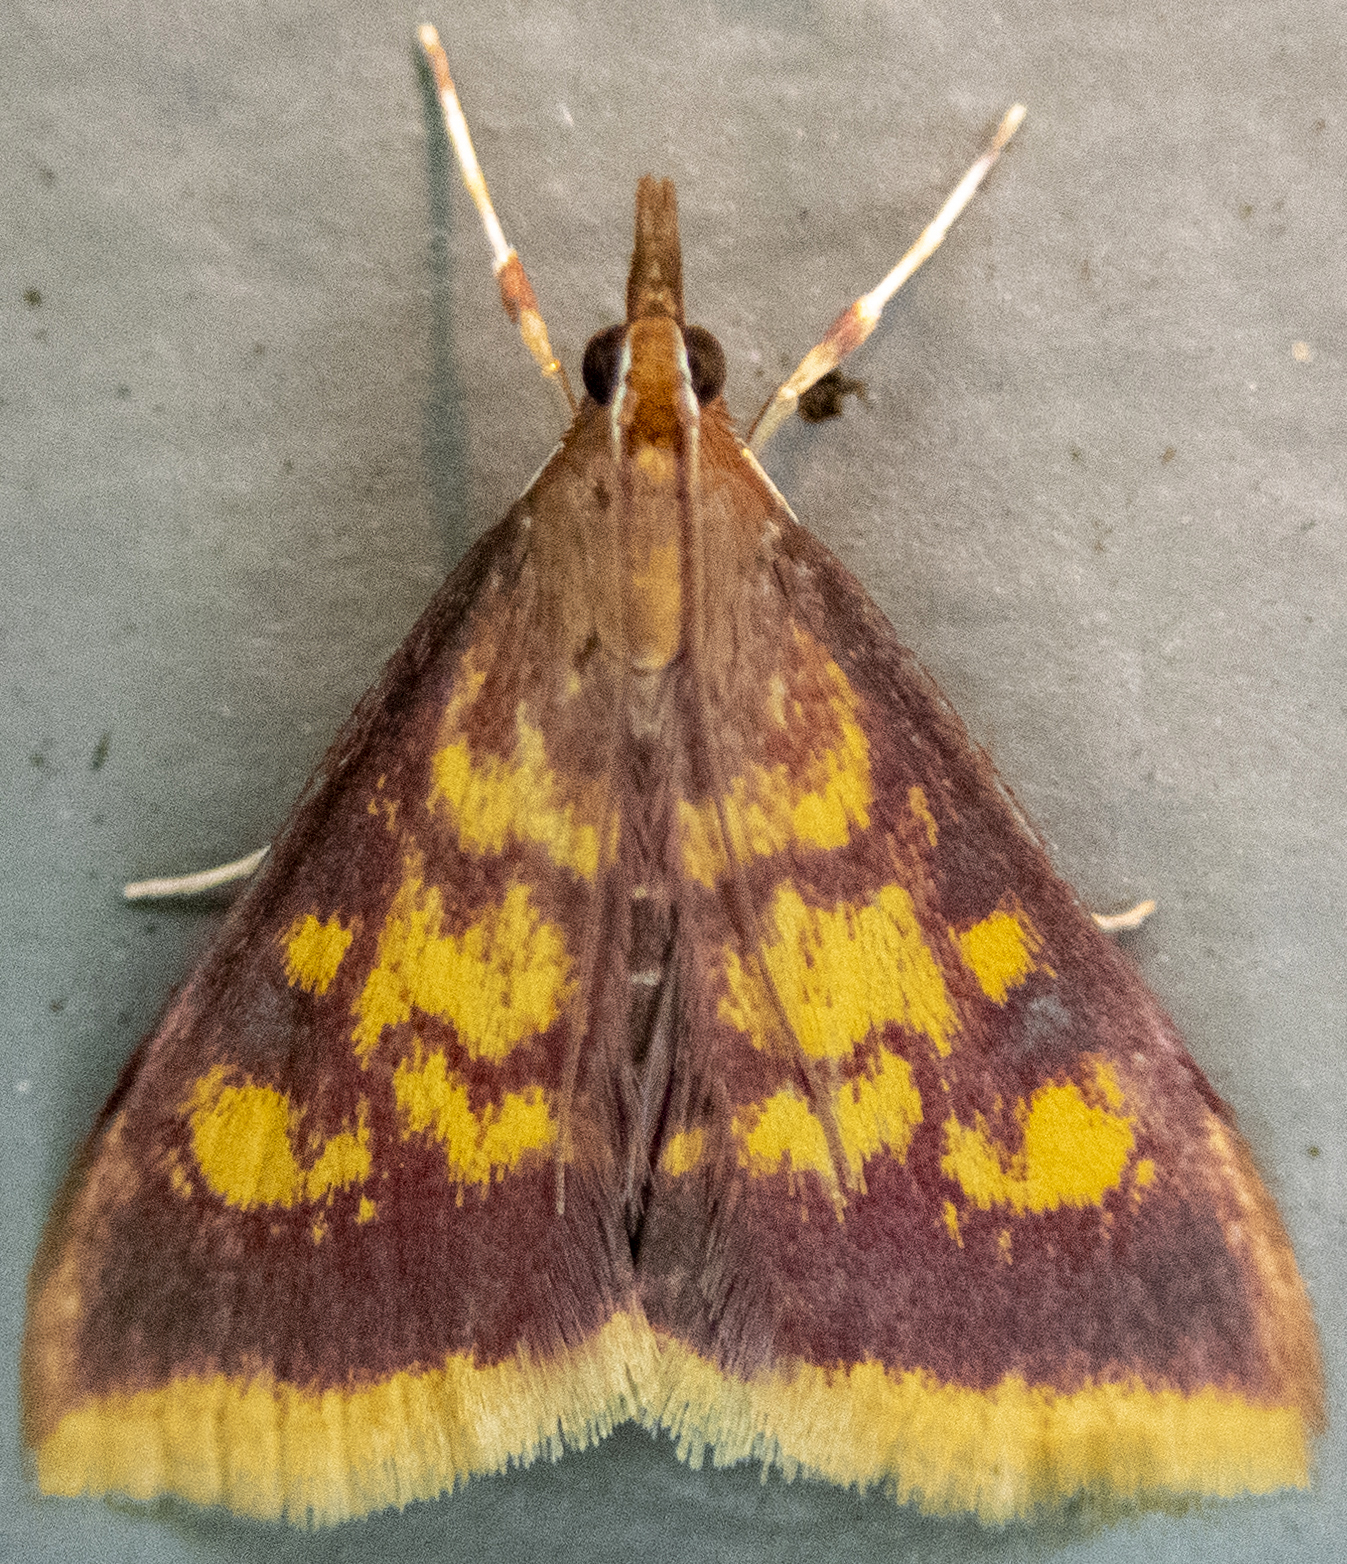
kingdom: Animalia
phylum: Arthropoda
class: Insecta
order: Lepidoptera
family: Crambidae
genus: Pyrausta
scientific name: Pyrausta acrionalis
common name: Mint-loving pyrausta moth
